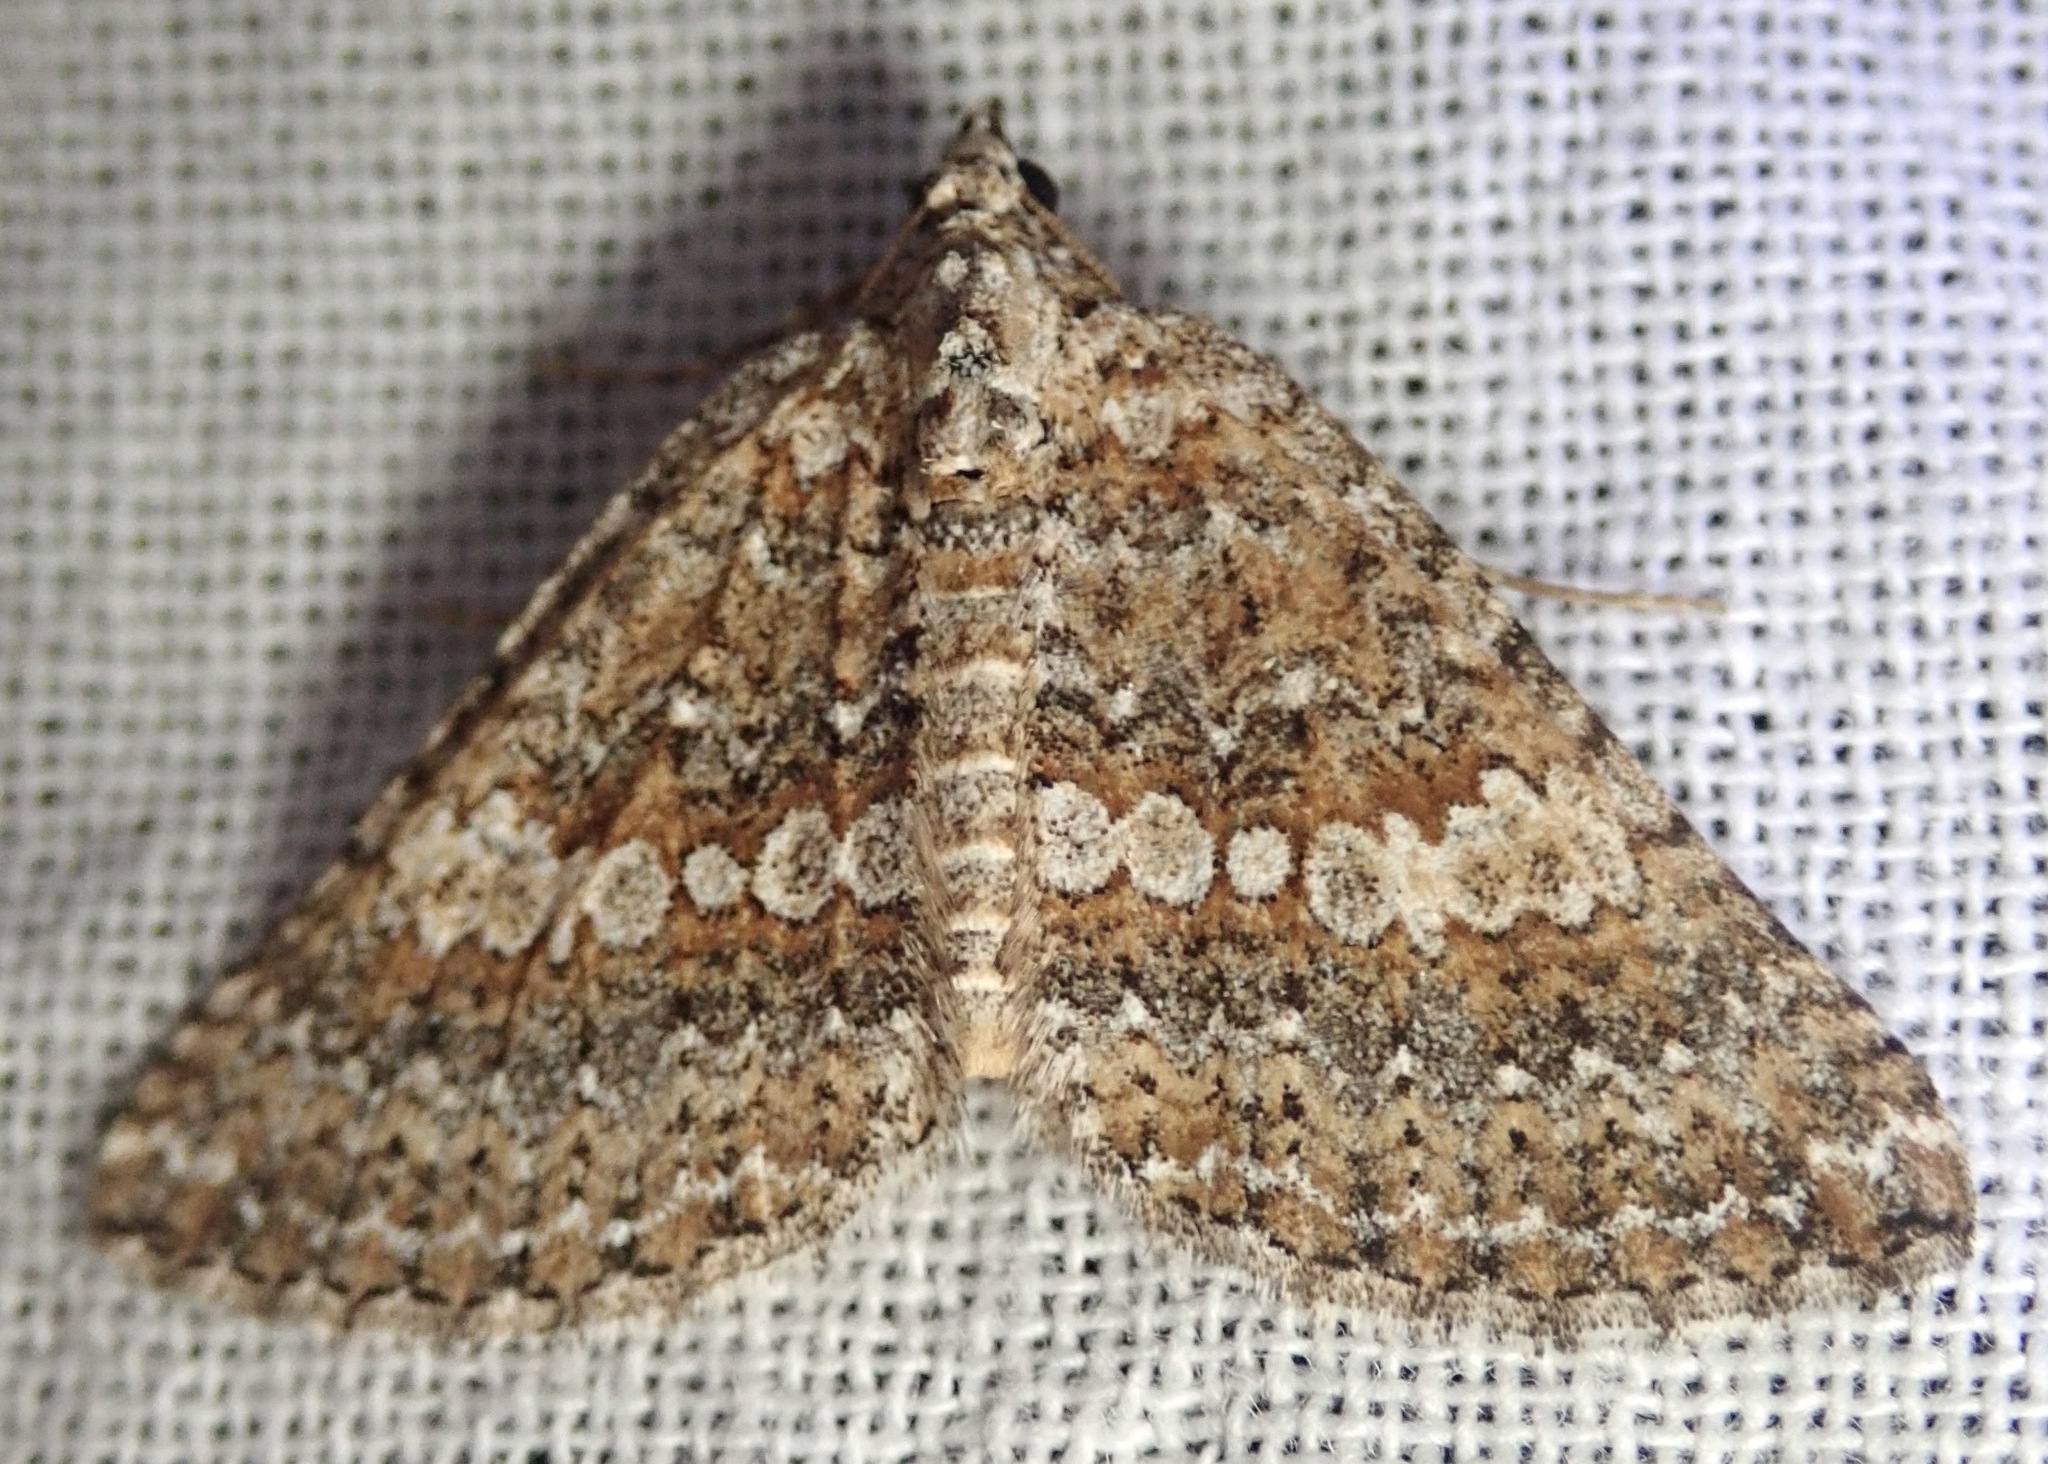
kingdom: Animalia
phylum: Arthropoda
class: Insecta
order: Lepidoptera
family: Geometridae
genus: Euphyia
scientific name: Euphyia implicata
